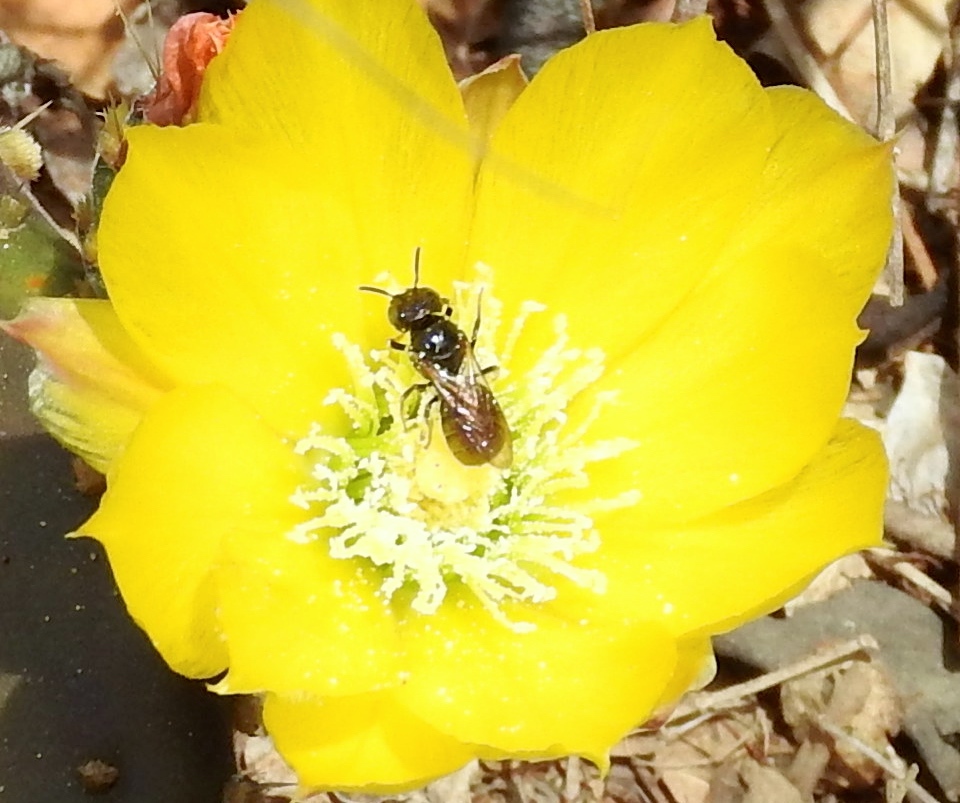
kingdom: Animalia
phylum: Arthropoda
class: Insecta
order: Hymenoptera
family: Apidae
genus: Ceratina
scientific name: Ceratina
